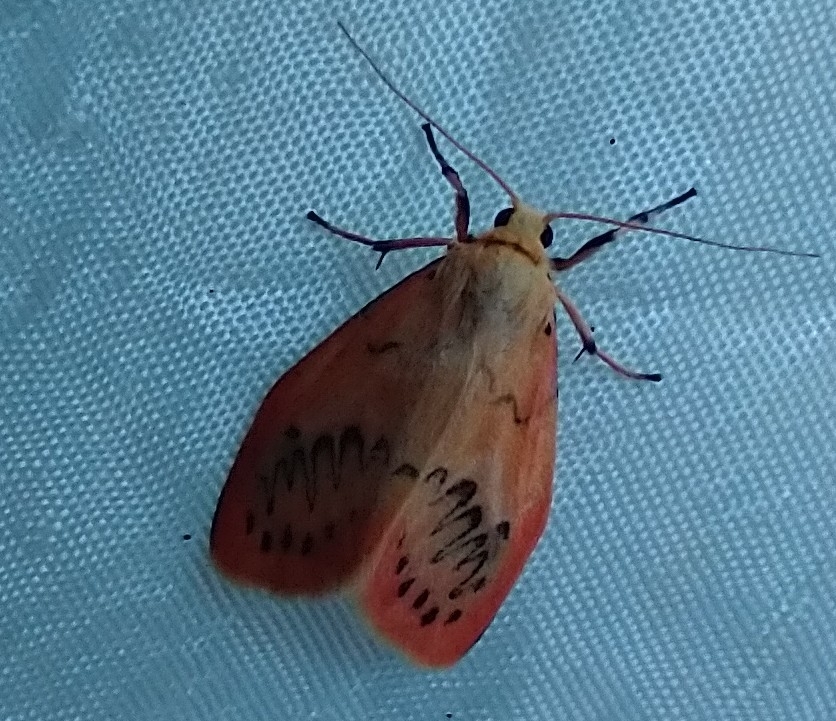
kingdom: Animalia
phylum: Arthropoda
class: Insecta
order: Lepidoptera
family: Erebidae
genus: Miltochrista
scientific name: Miltochrista miniata
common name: Rosy footman
